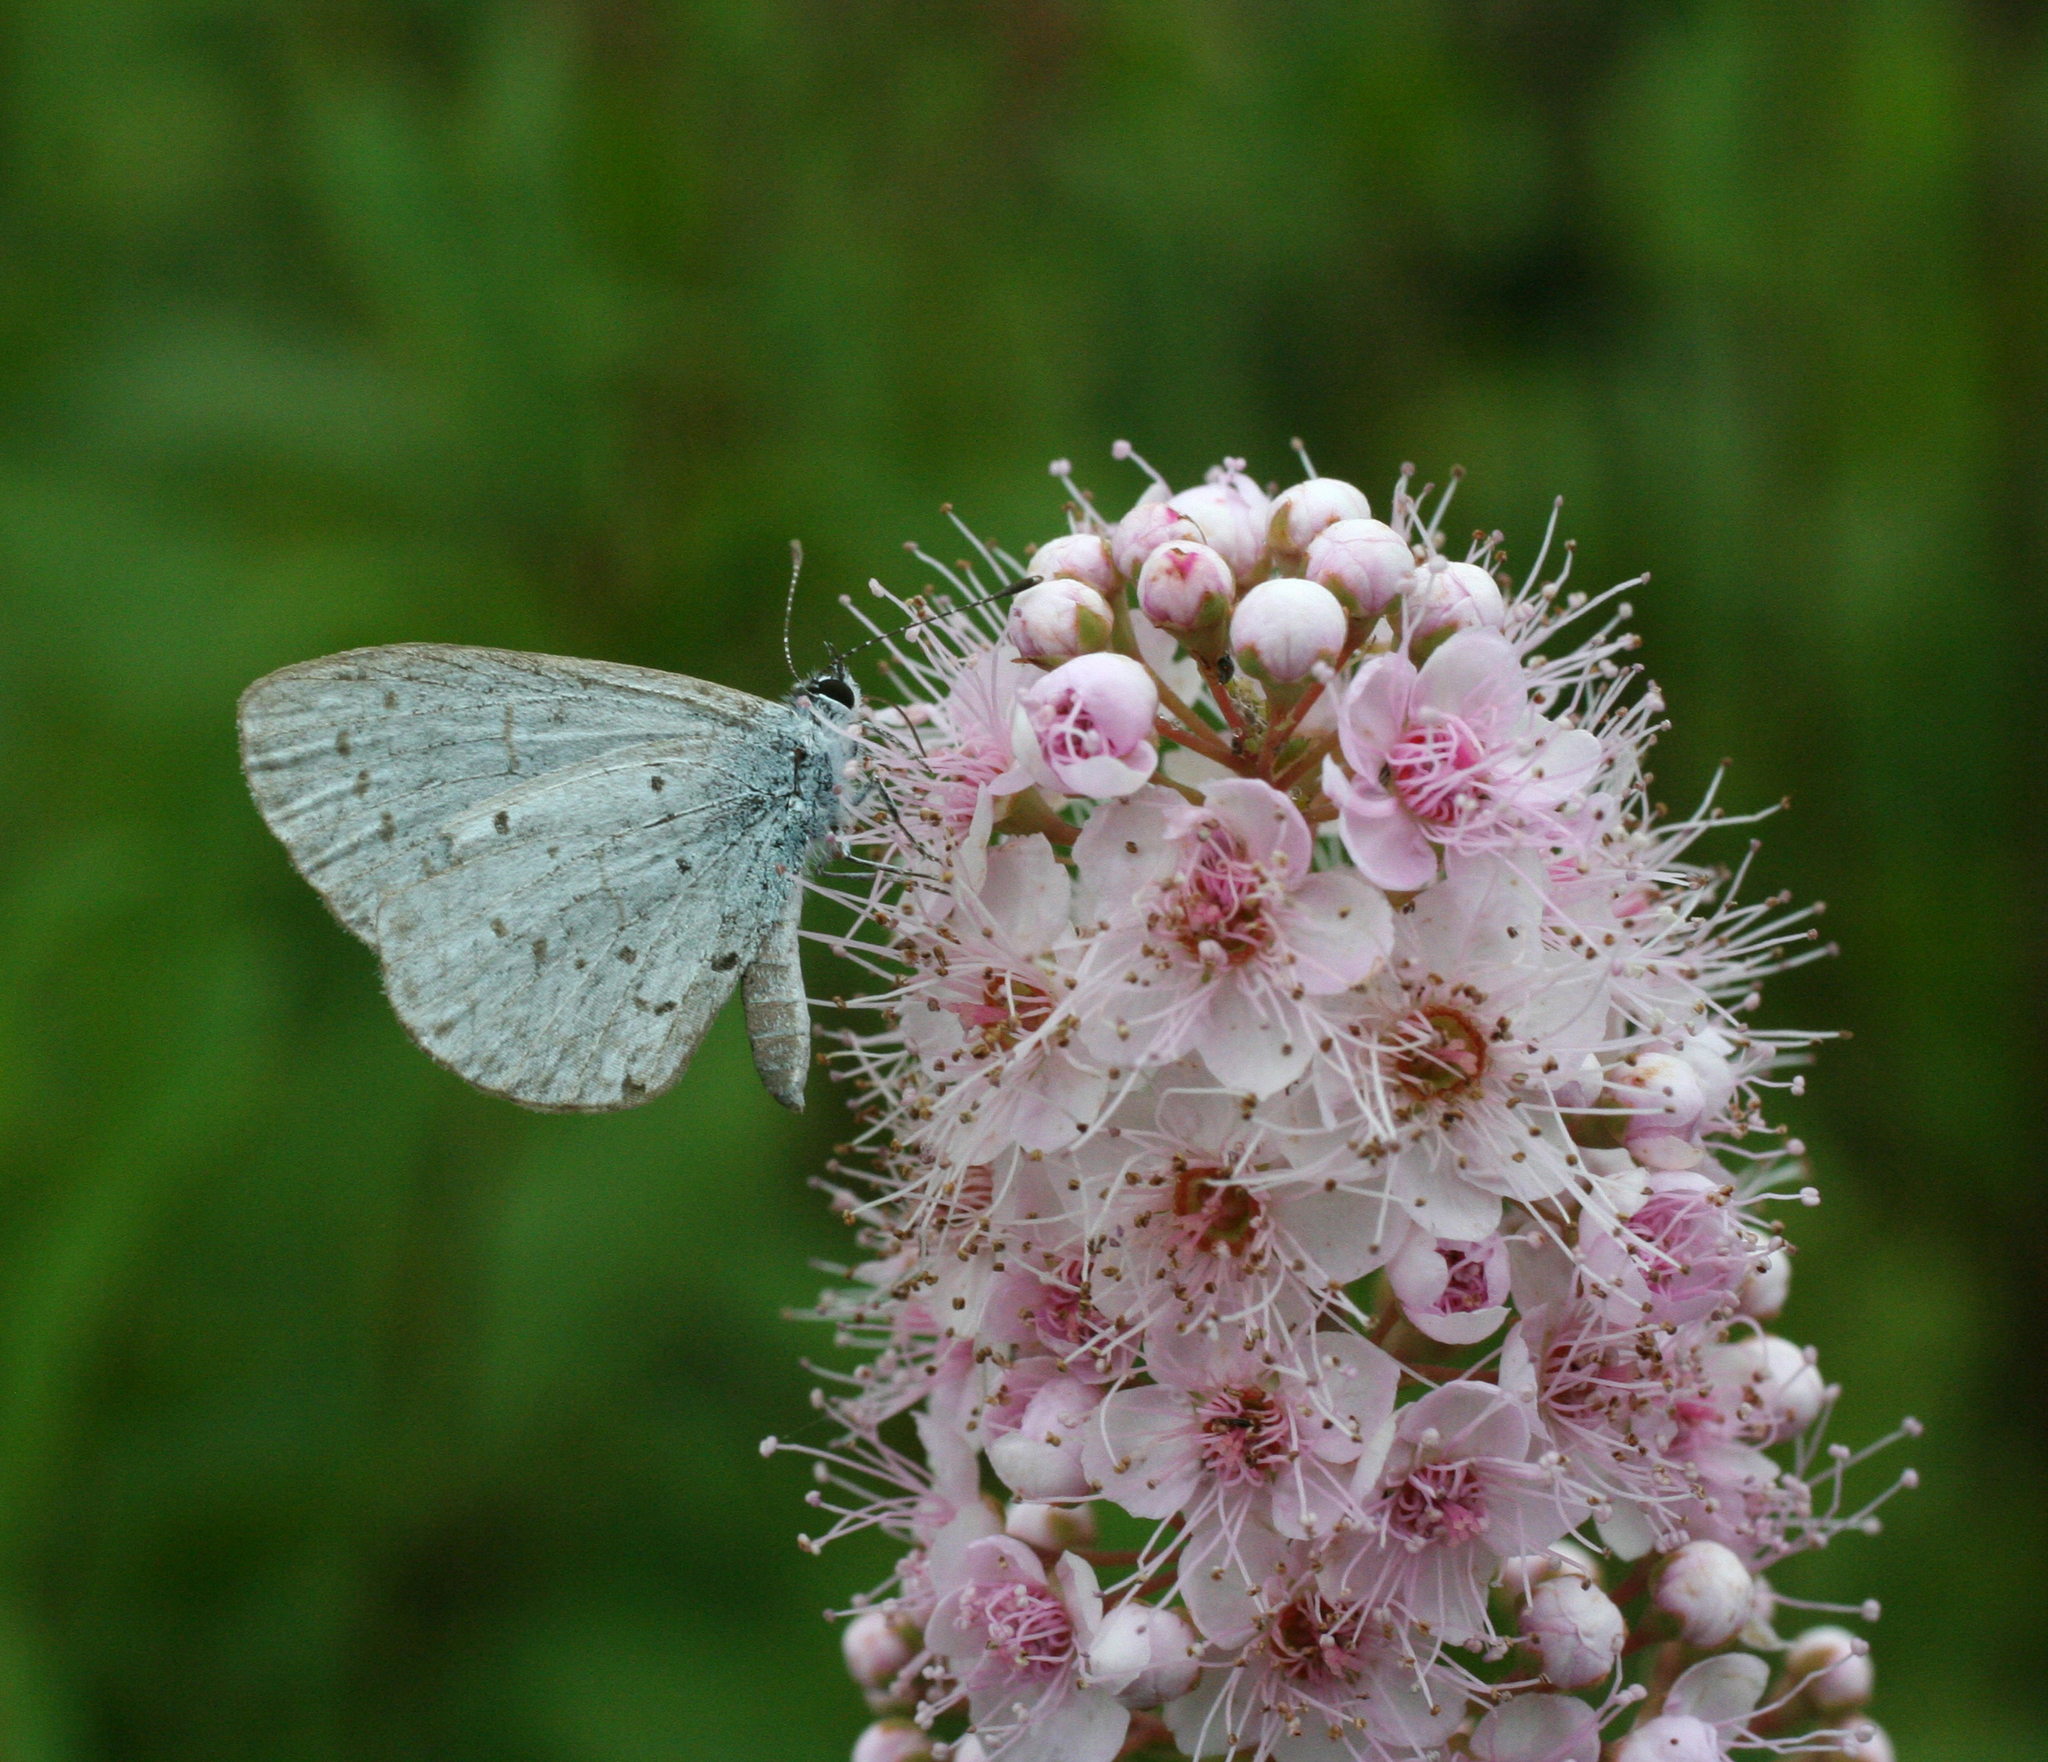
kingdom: Animalia
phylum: Arthropoda
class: Insecta
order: Lepidoptera
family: Lycaenidae
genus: Celastrina
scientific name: Celastrina argiolus
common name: Holly blue
